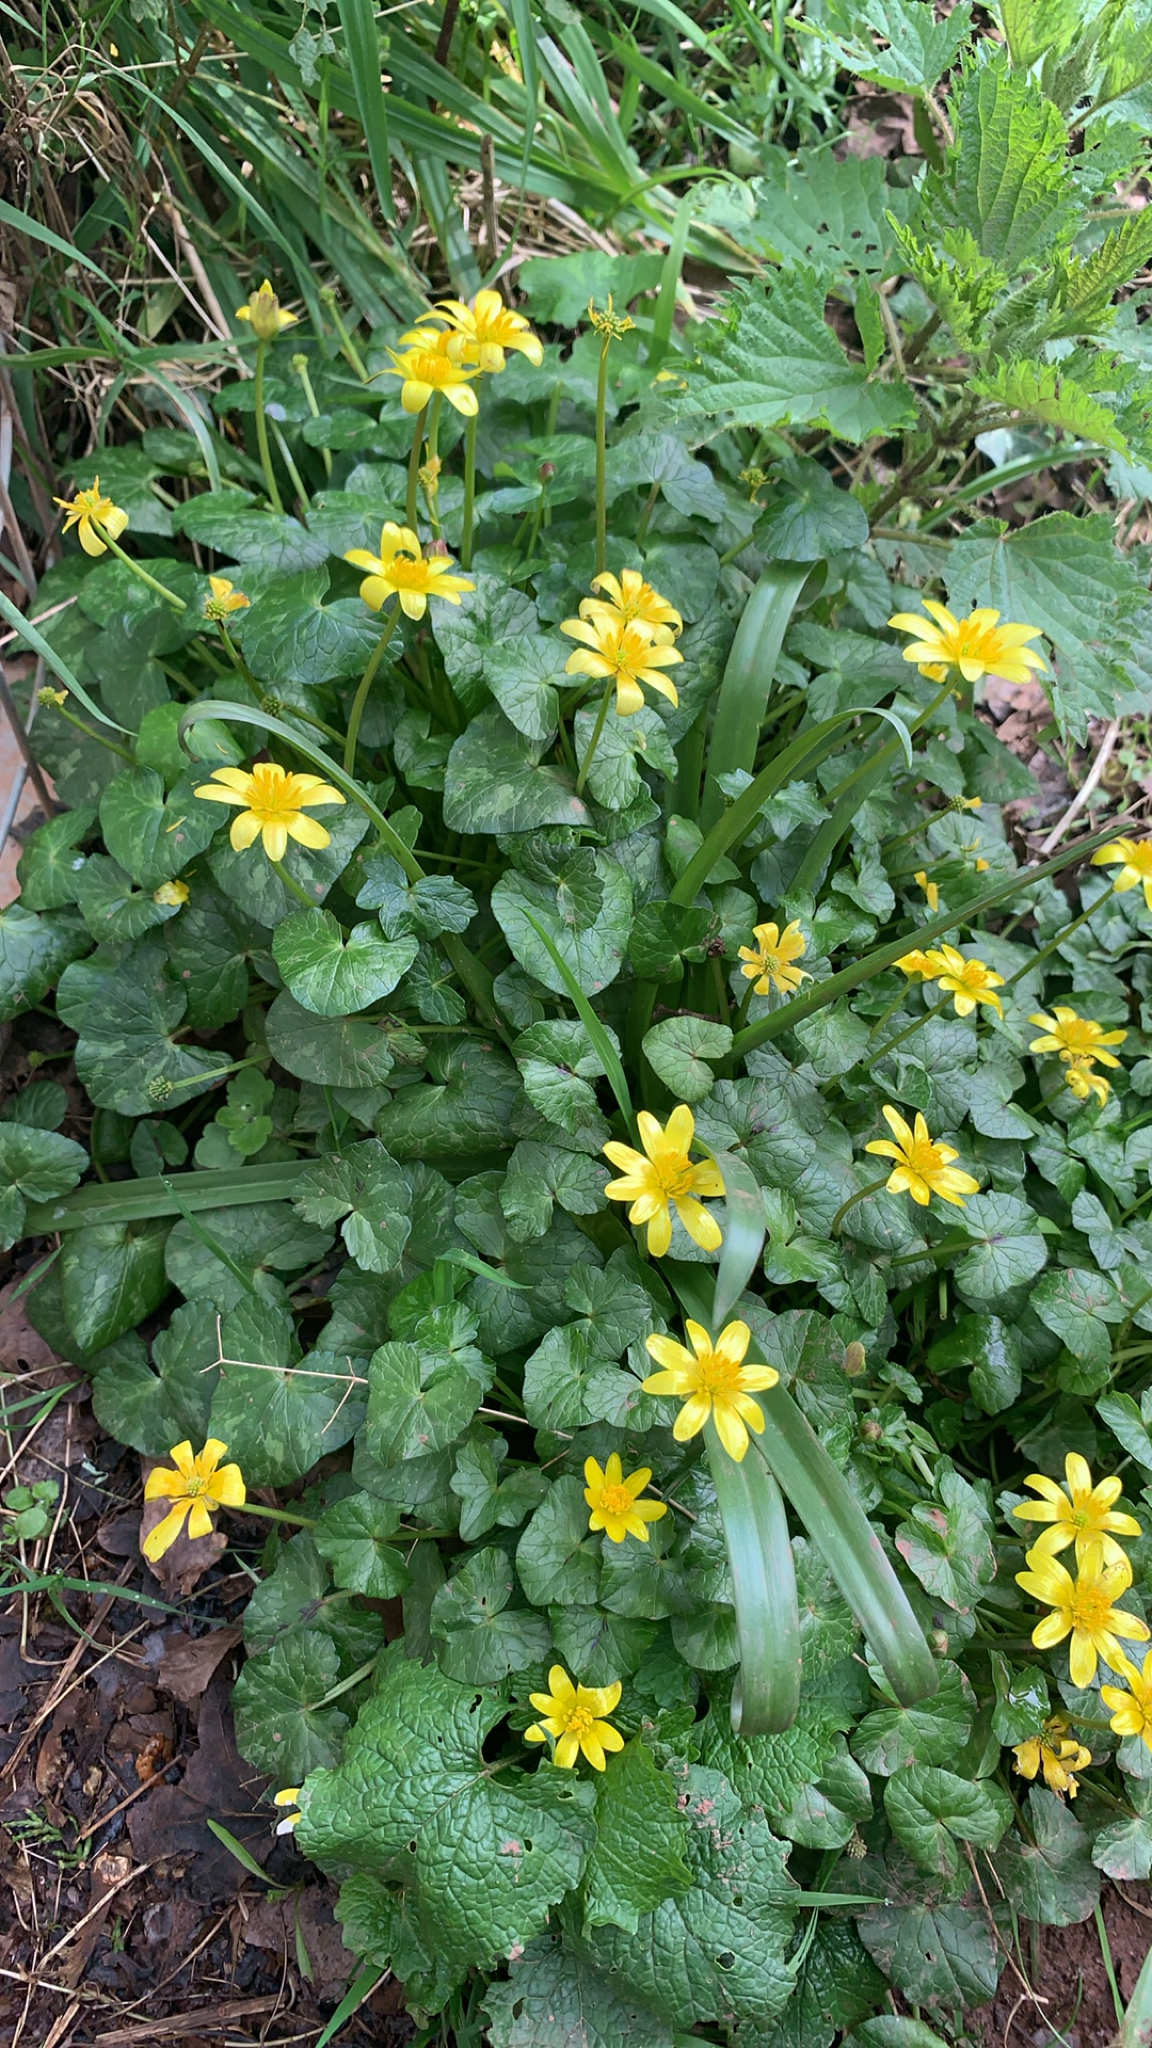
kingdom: Plantae
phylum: Tracheophyta
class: Magnoliopsida
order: Ranunculales
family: Ranunculaceae
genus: Ficaria
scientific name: Ficaria verna
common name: Lesser celandine
